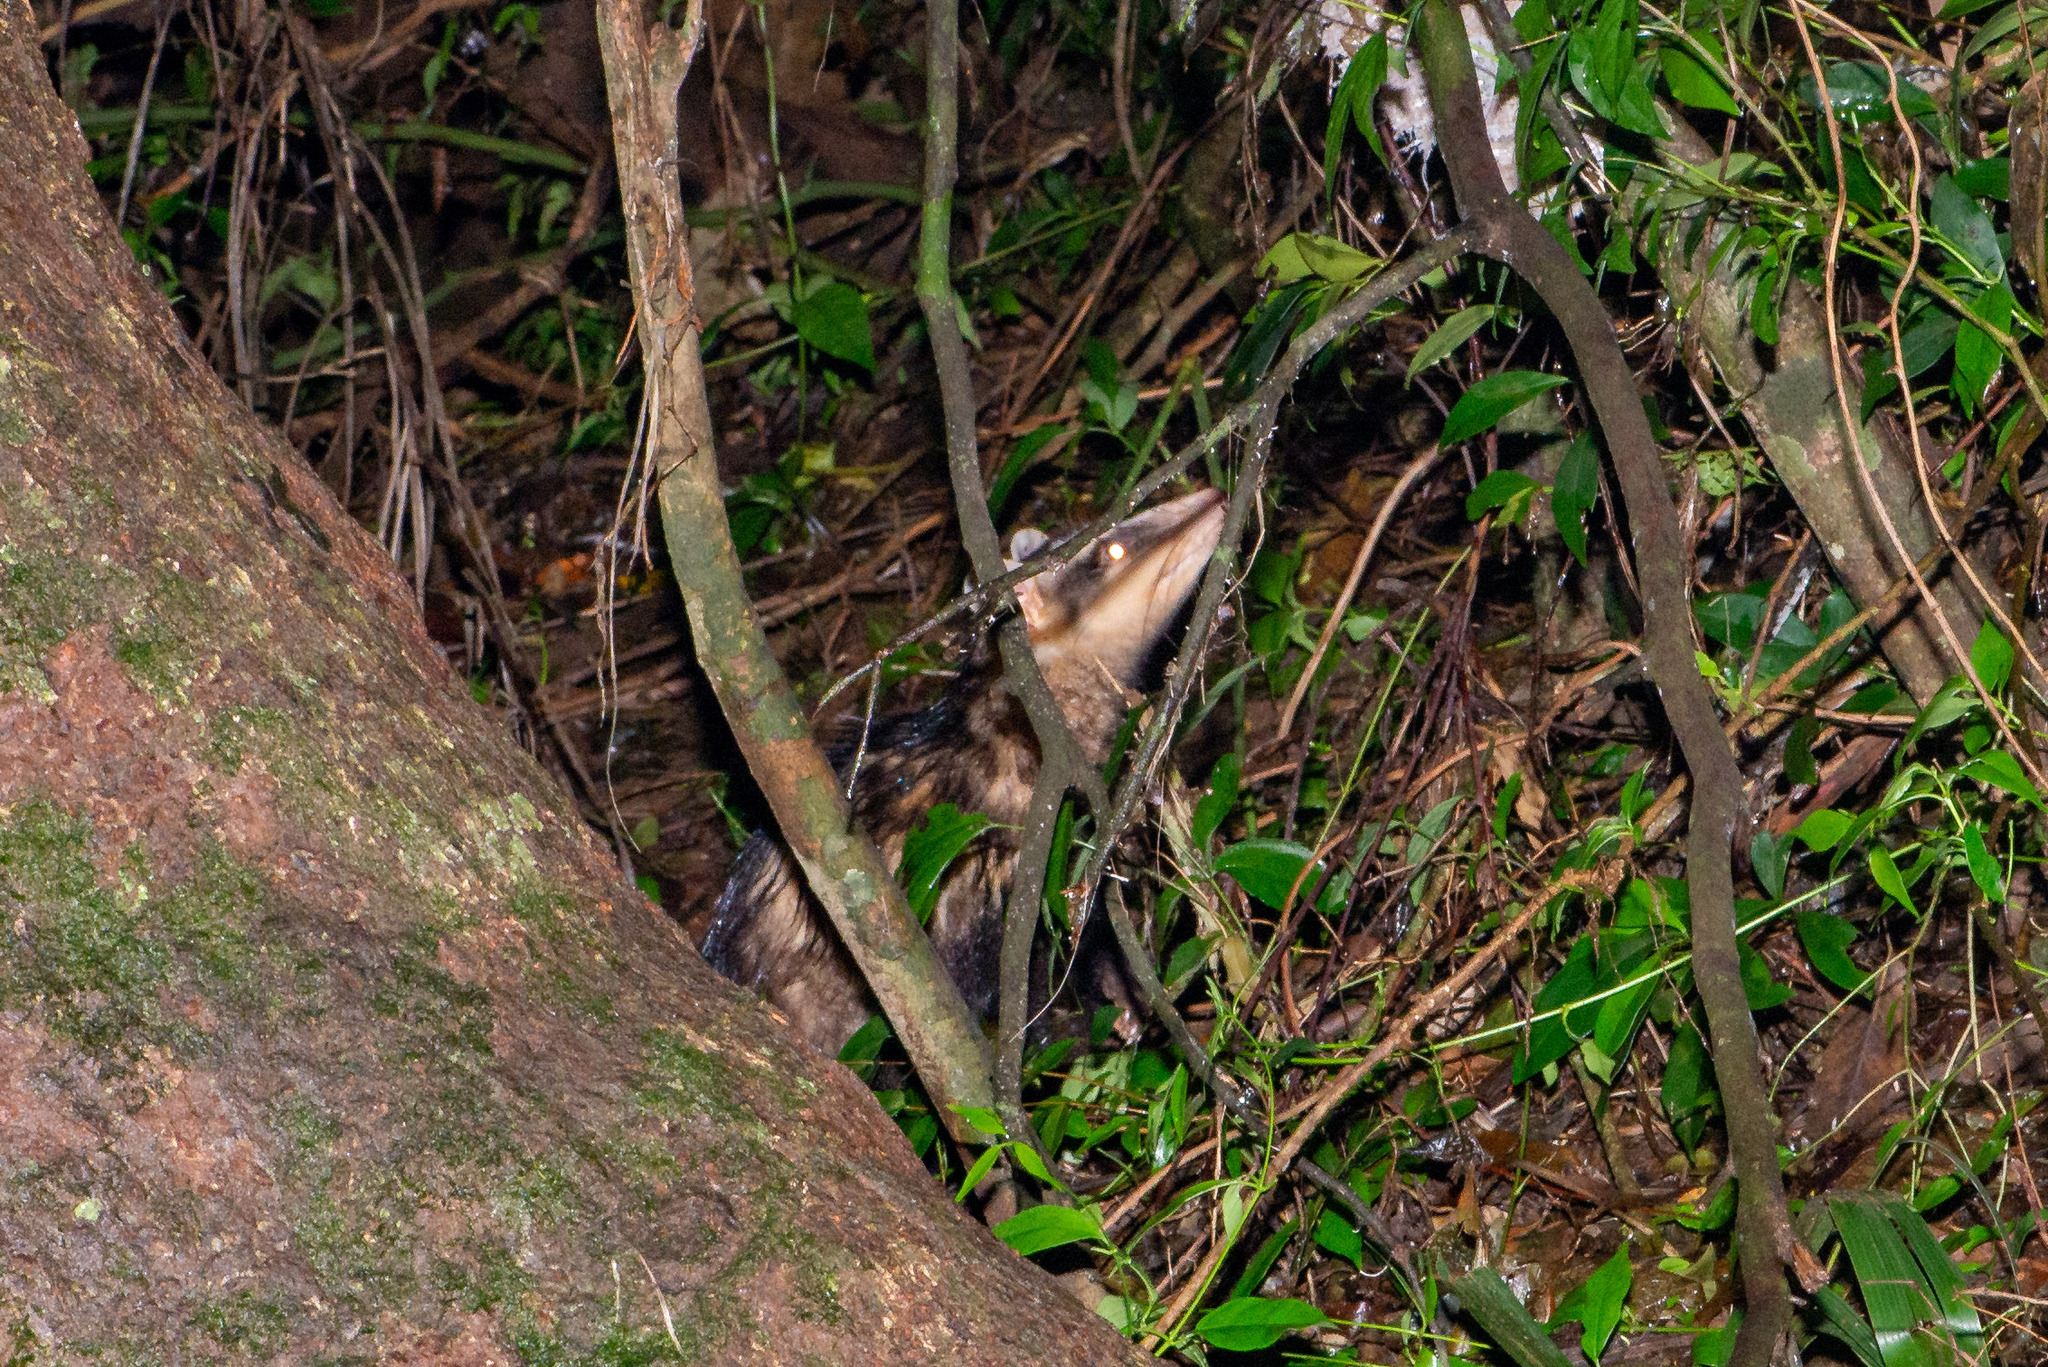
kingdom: Animalia
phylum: Chordata
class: Mammalia
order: Didelphimorphia
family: Didelphidae
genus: Didelphis
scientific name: Didelphis albiventris
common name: White-eared opossum
